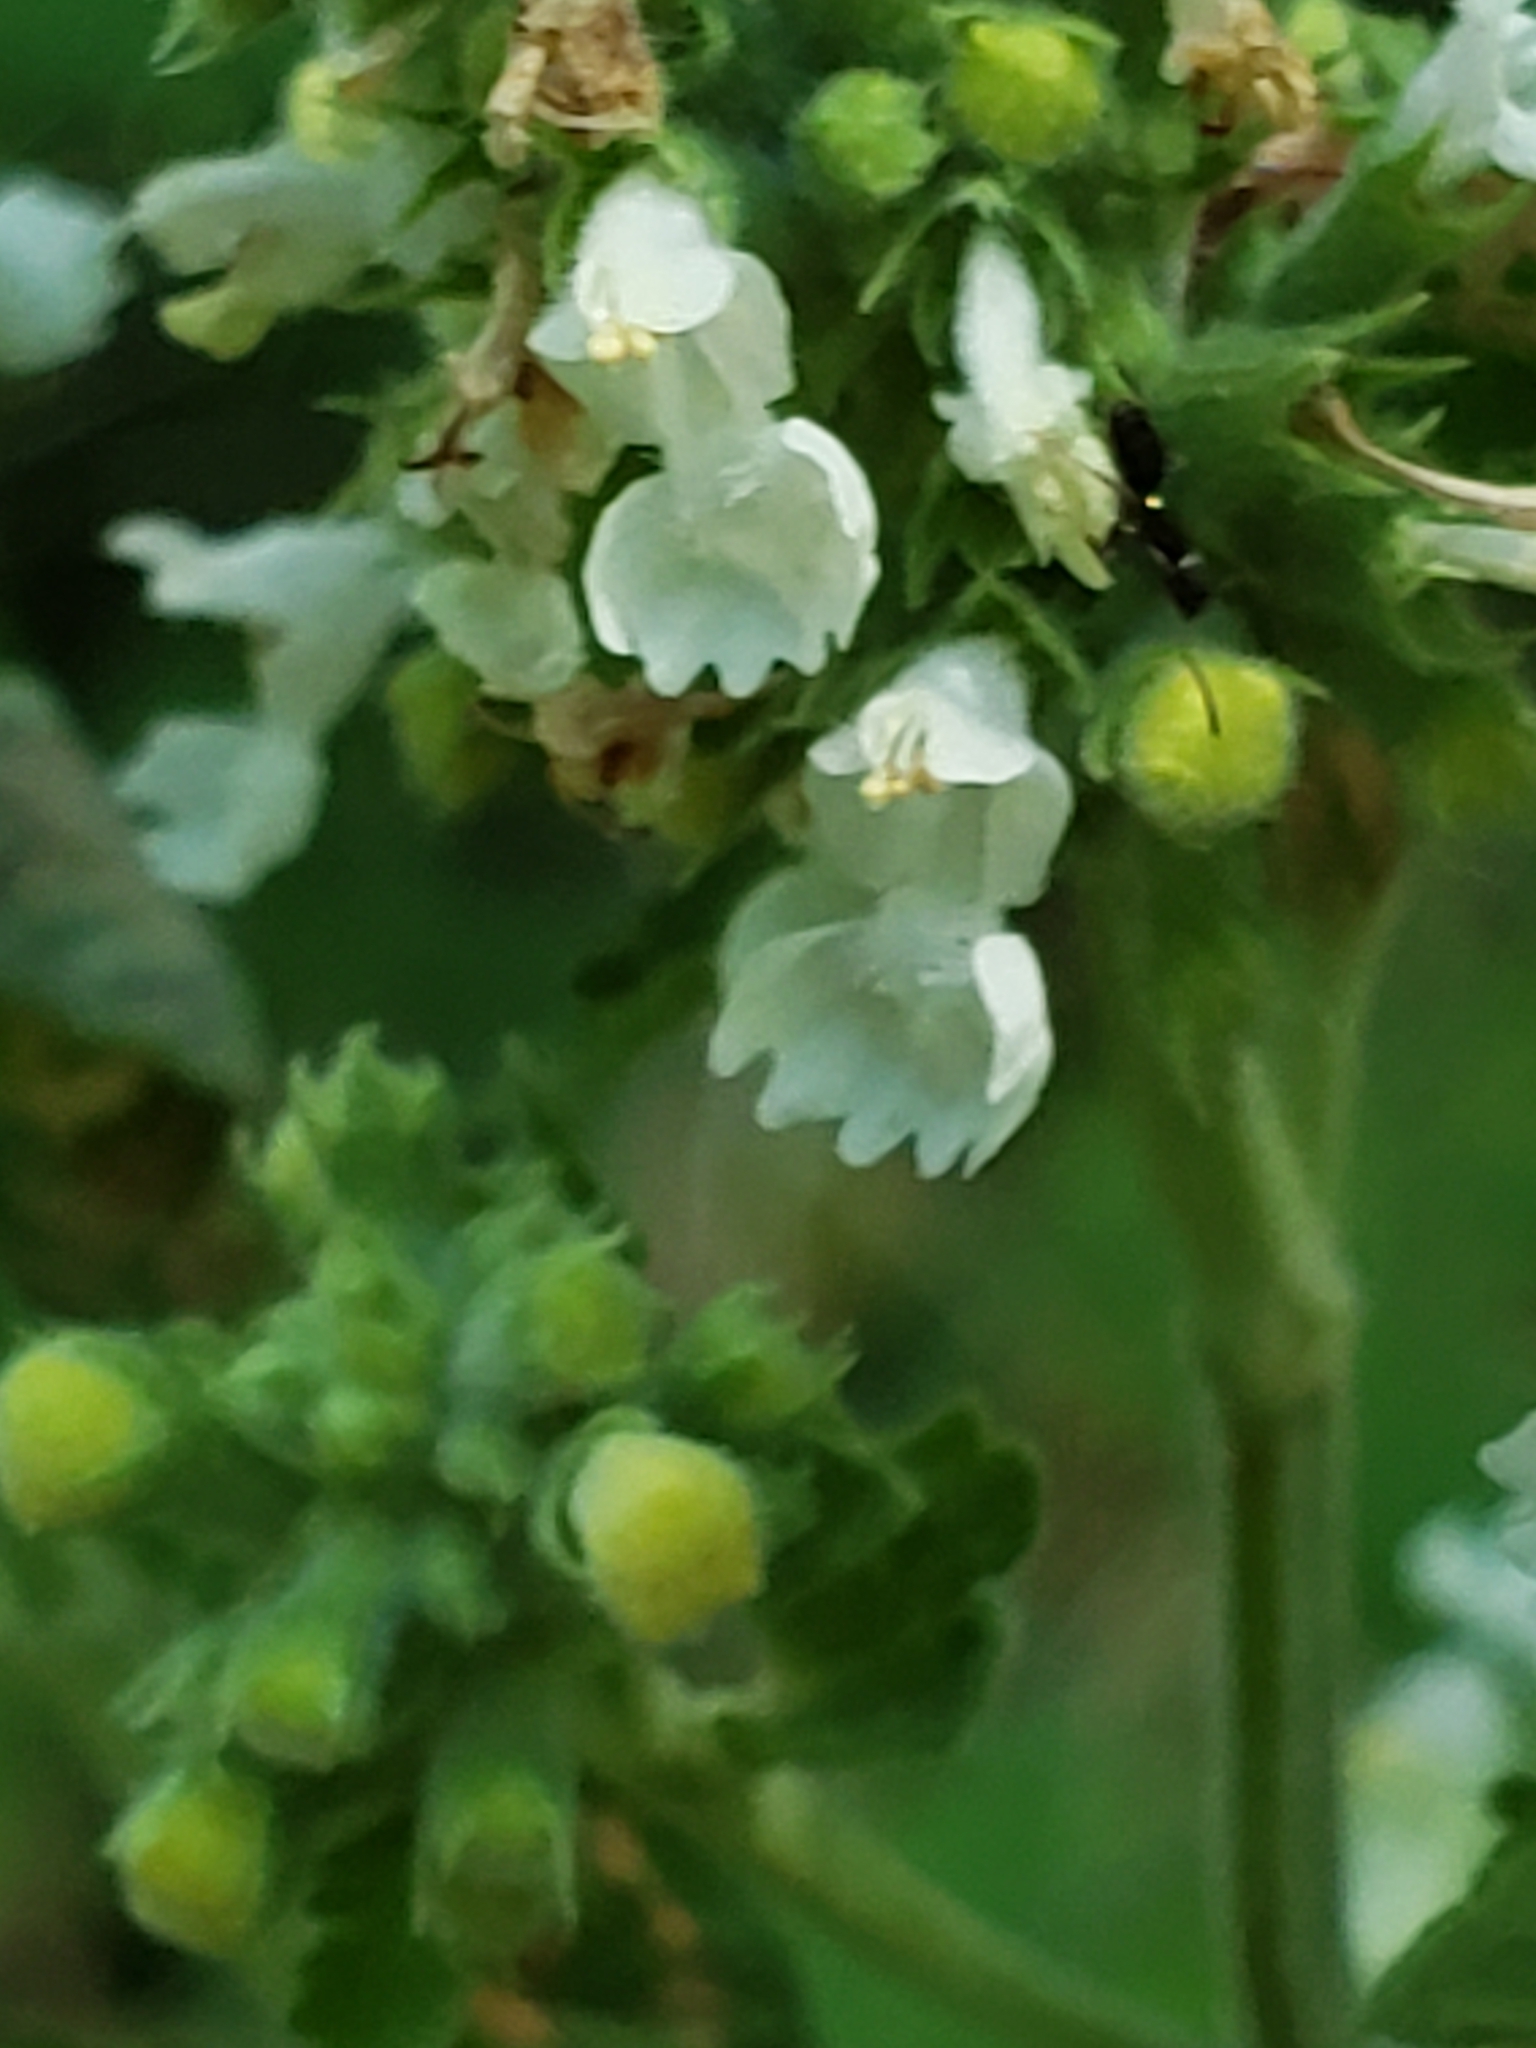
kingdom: Plantae
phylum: Tracheophyta
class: Magnoliopsida
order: Lamiales
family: Lamiaceae
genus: Nepeta
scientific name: Nepeta cataria
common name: Catnip
